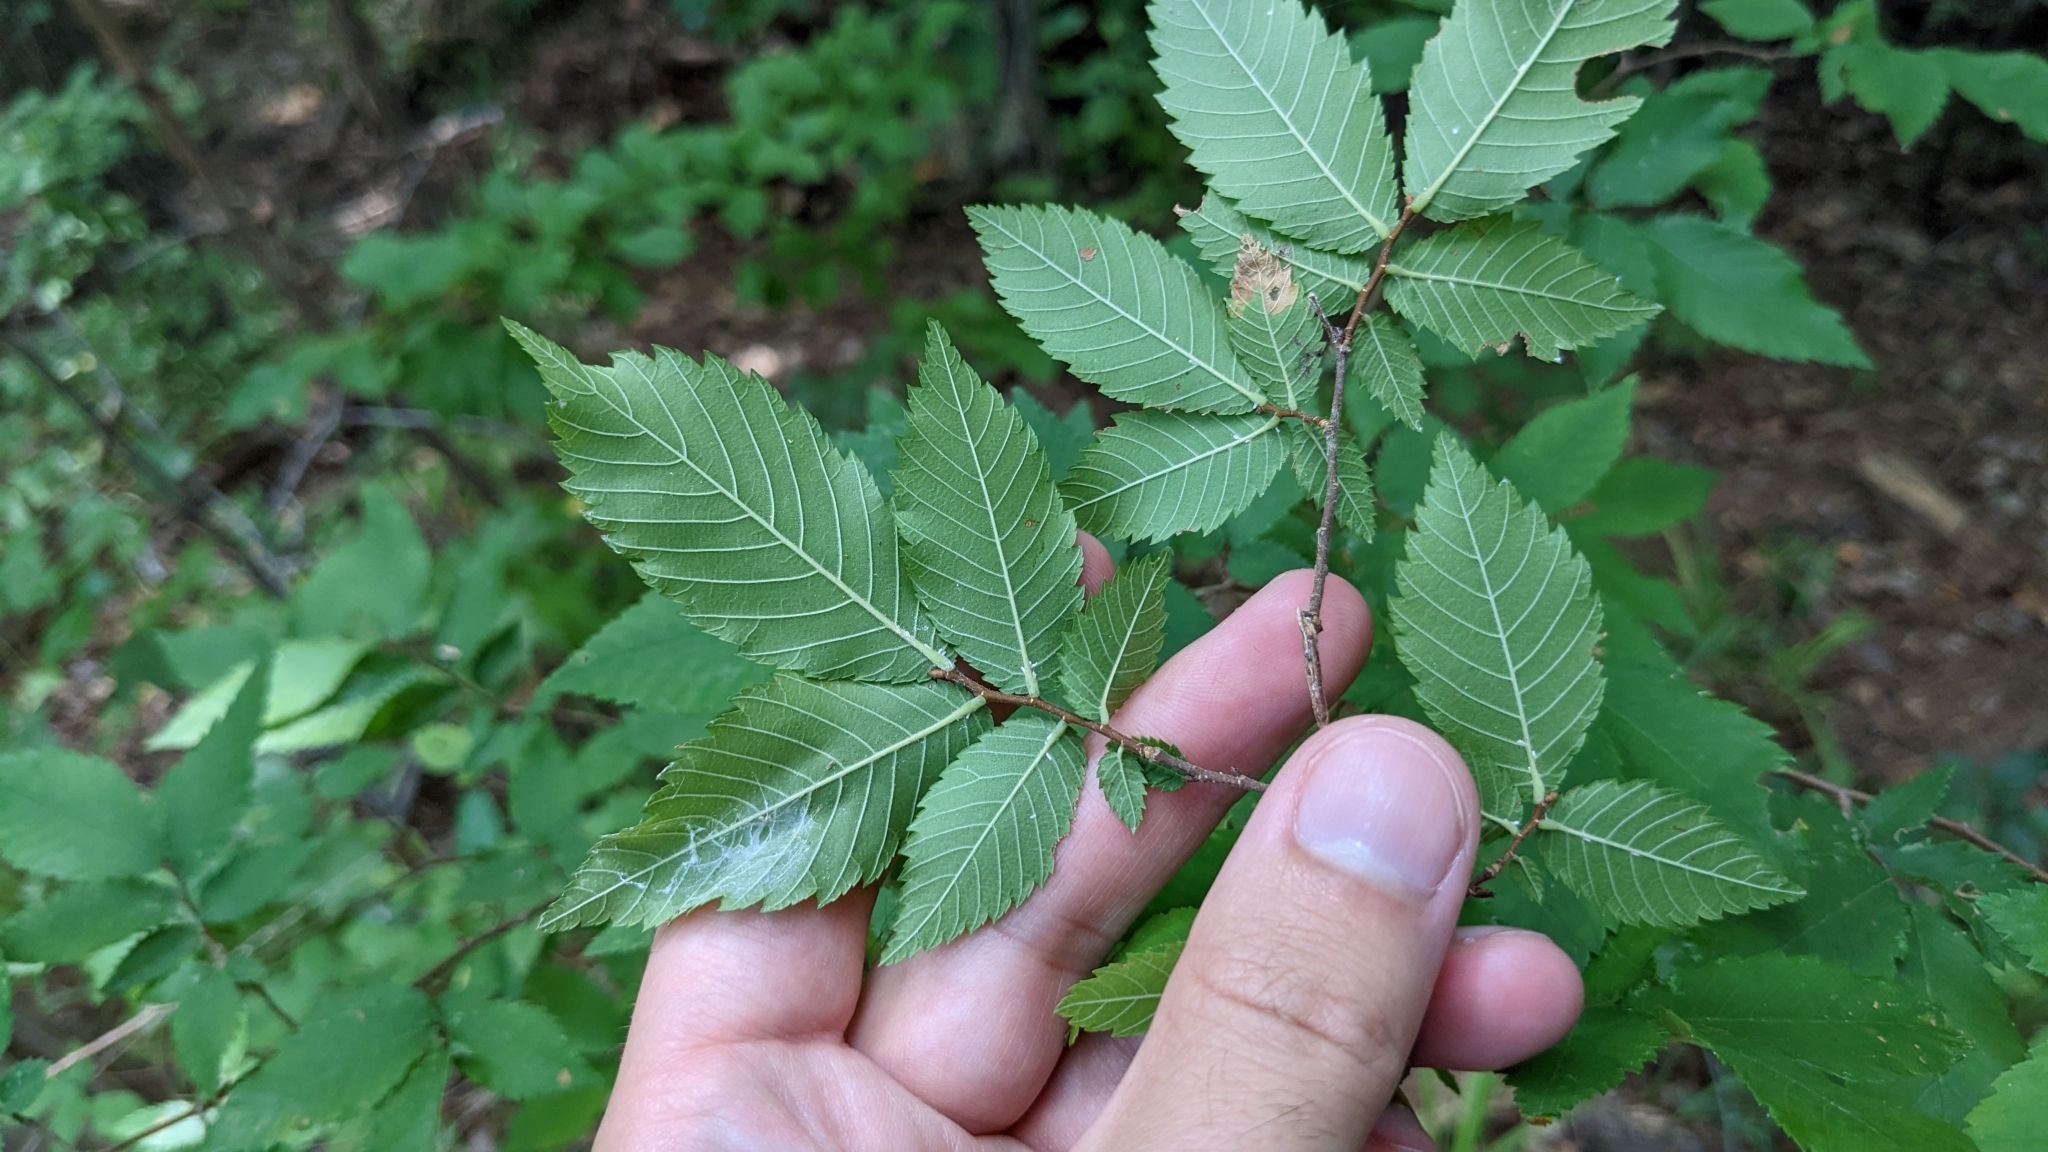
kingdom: Plantae
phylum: Tracheophyta
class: Magnoliopsida
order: Rosales
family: Ulmaceae
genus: Ulmus
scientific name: Ulmus alata
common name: Winged elm
